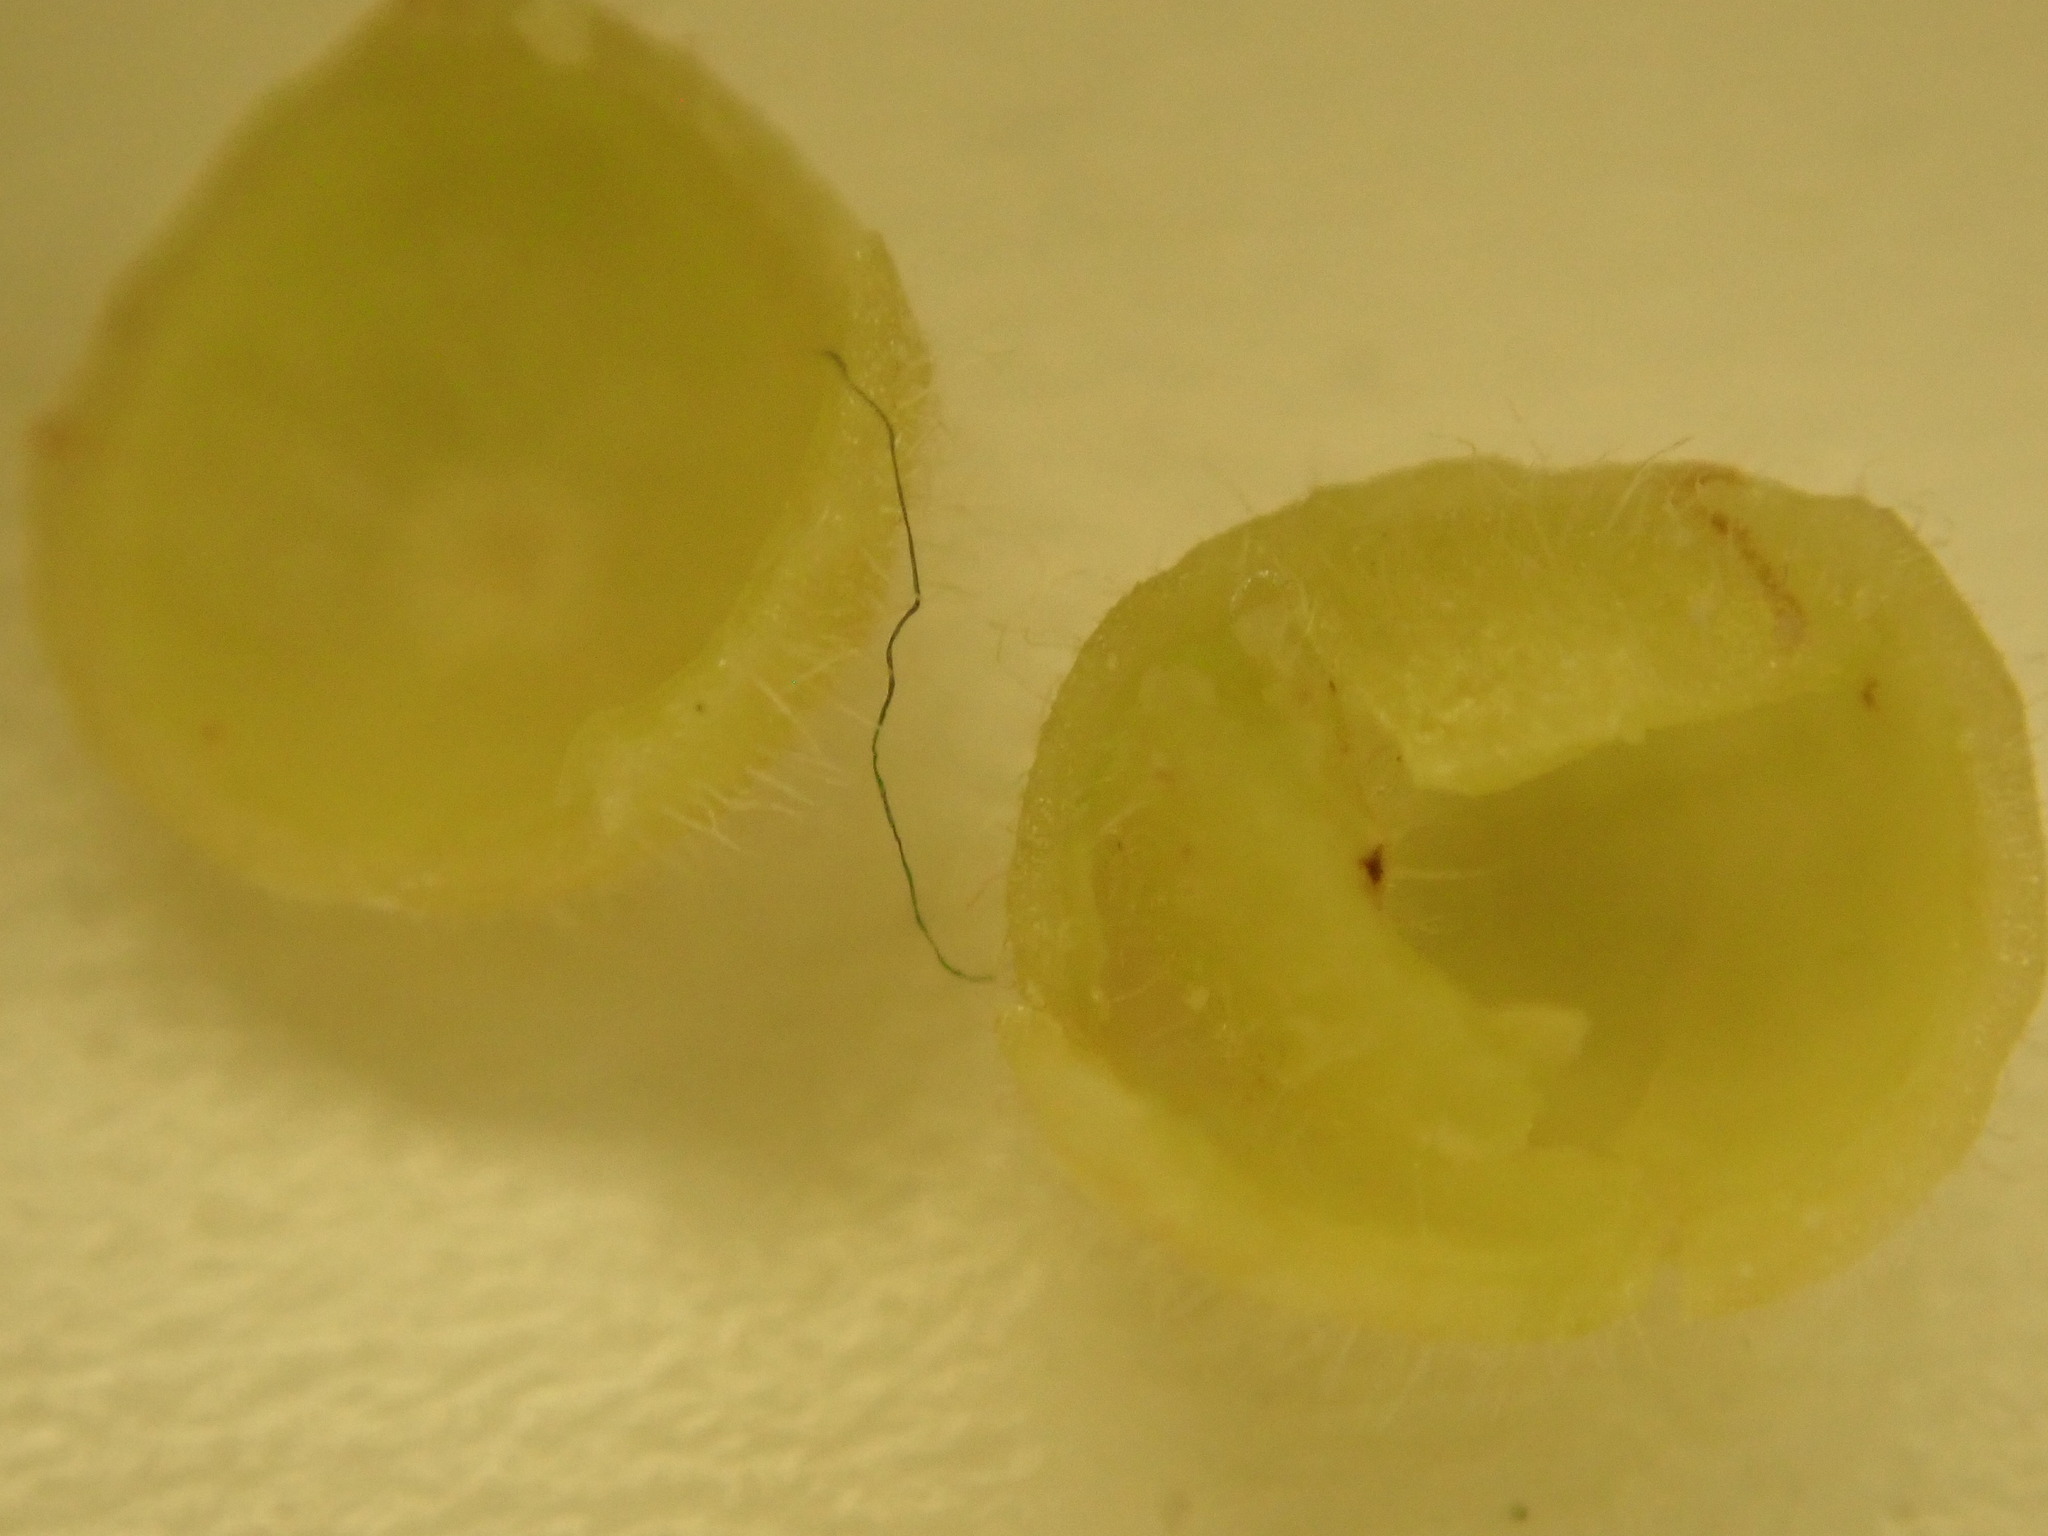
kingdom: Animalia
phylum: Arthropoda
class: Insecta
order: Diptera
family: Cecidomyiidae
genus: Caryomyia
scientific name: Caryomyia cilidolium
